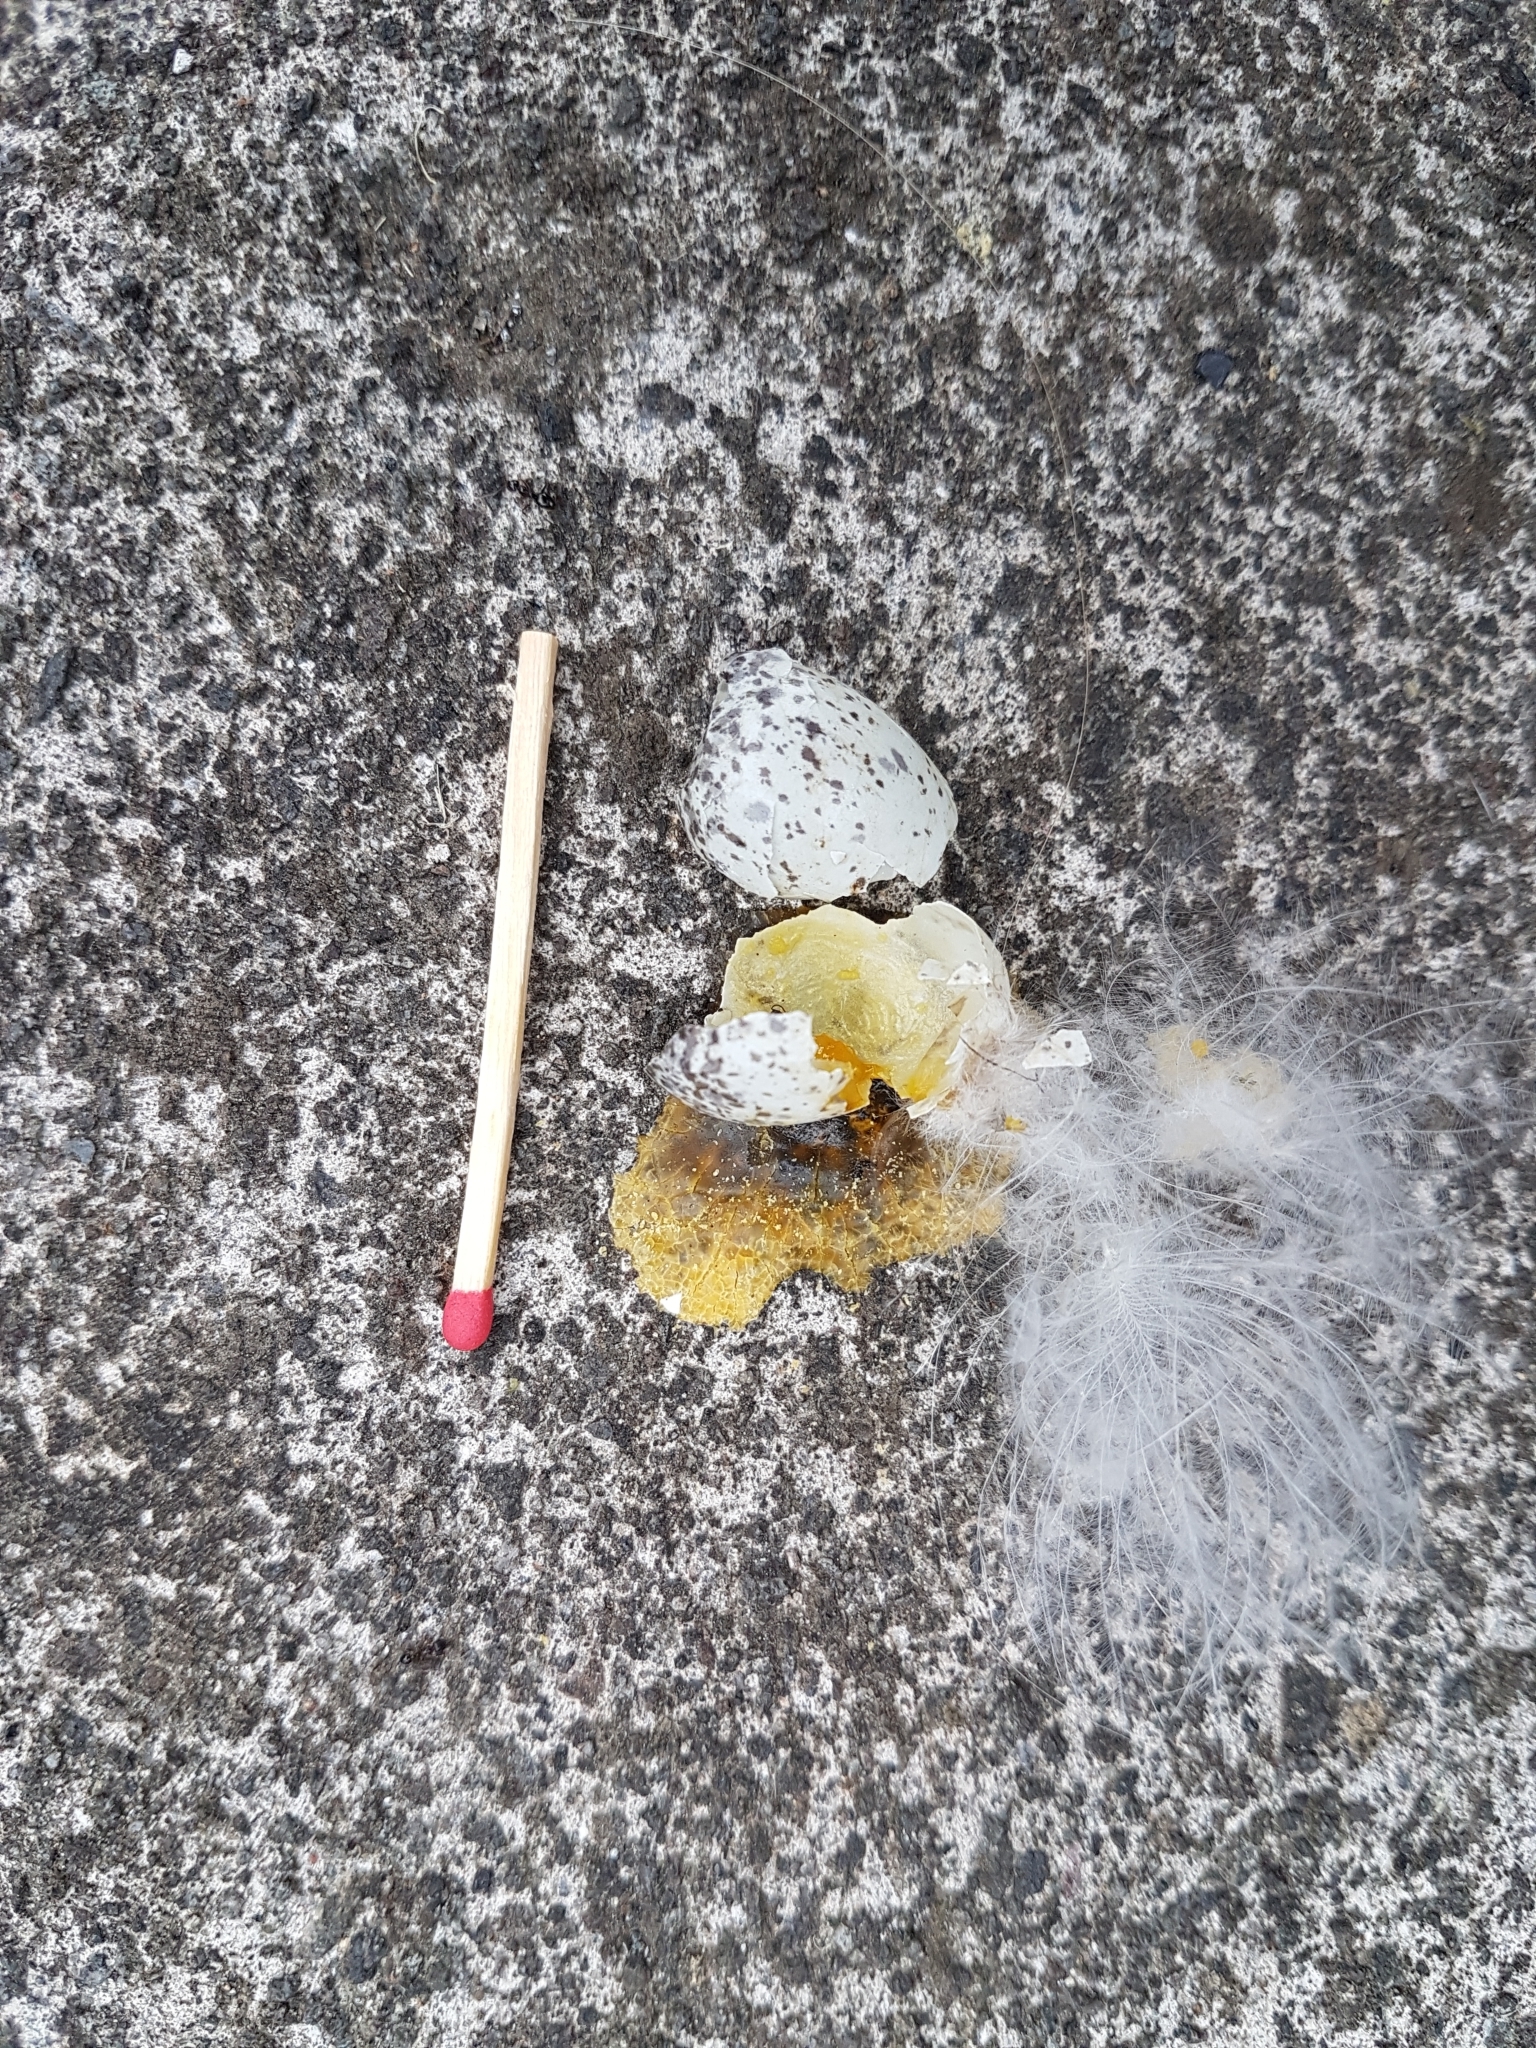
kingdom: Animalia
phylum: Chordata
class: Aves
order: Passeriformes
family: Rhipiduridae
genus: Rhipidura
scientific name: Rhipidura fuliginosa
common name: New zealand fantail
